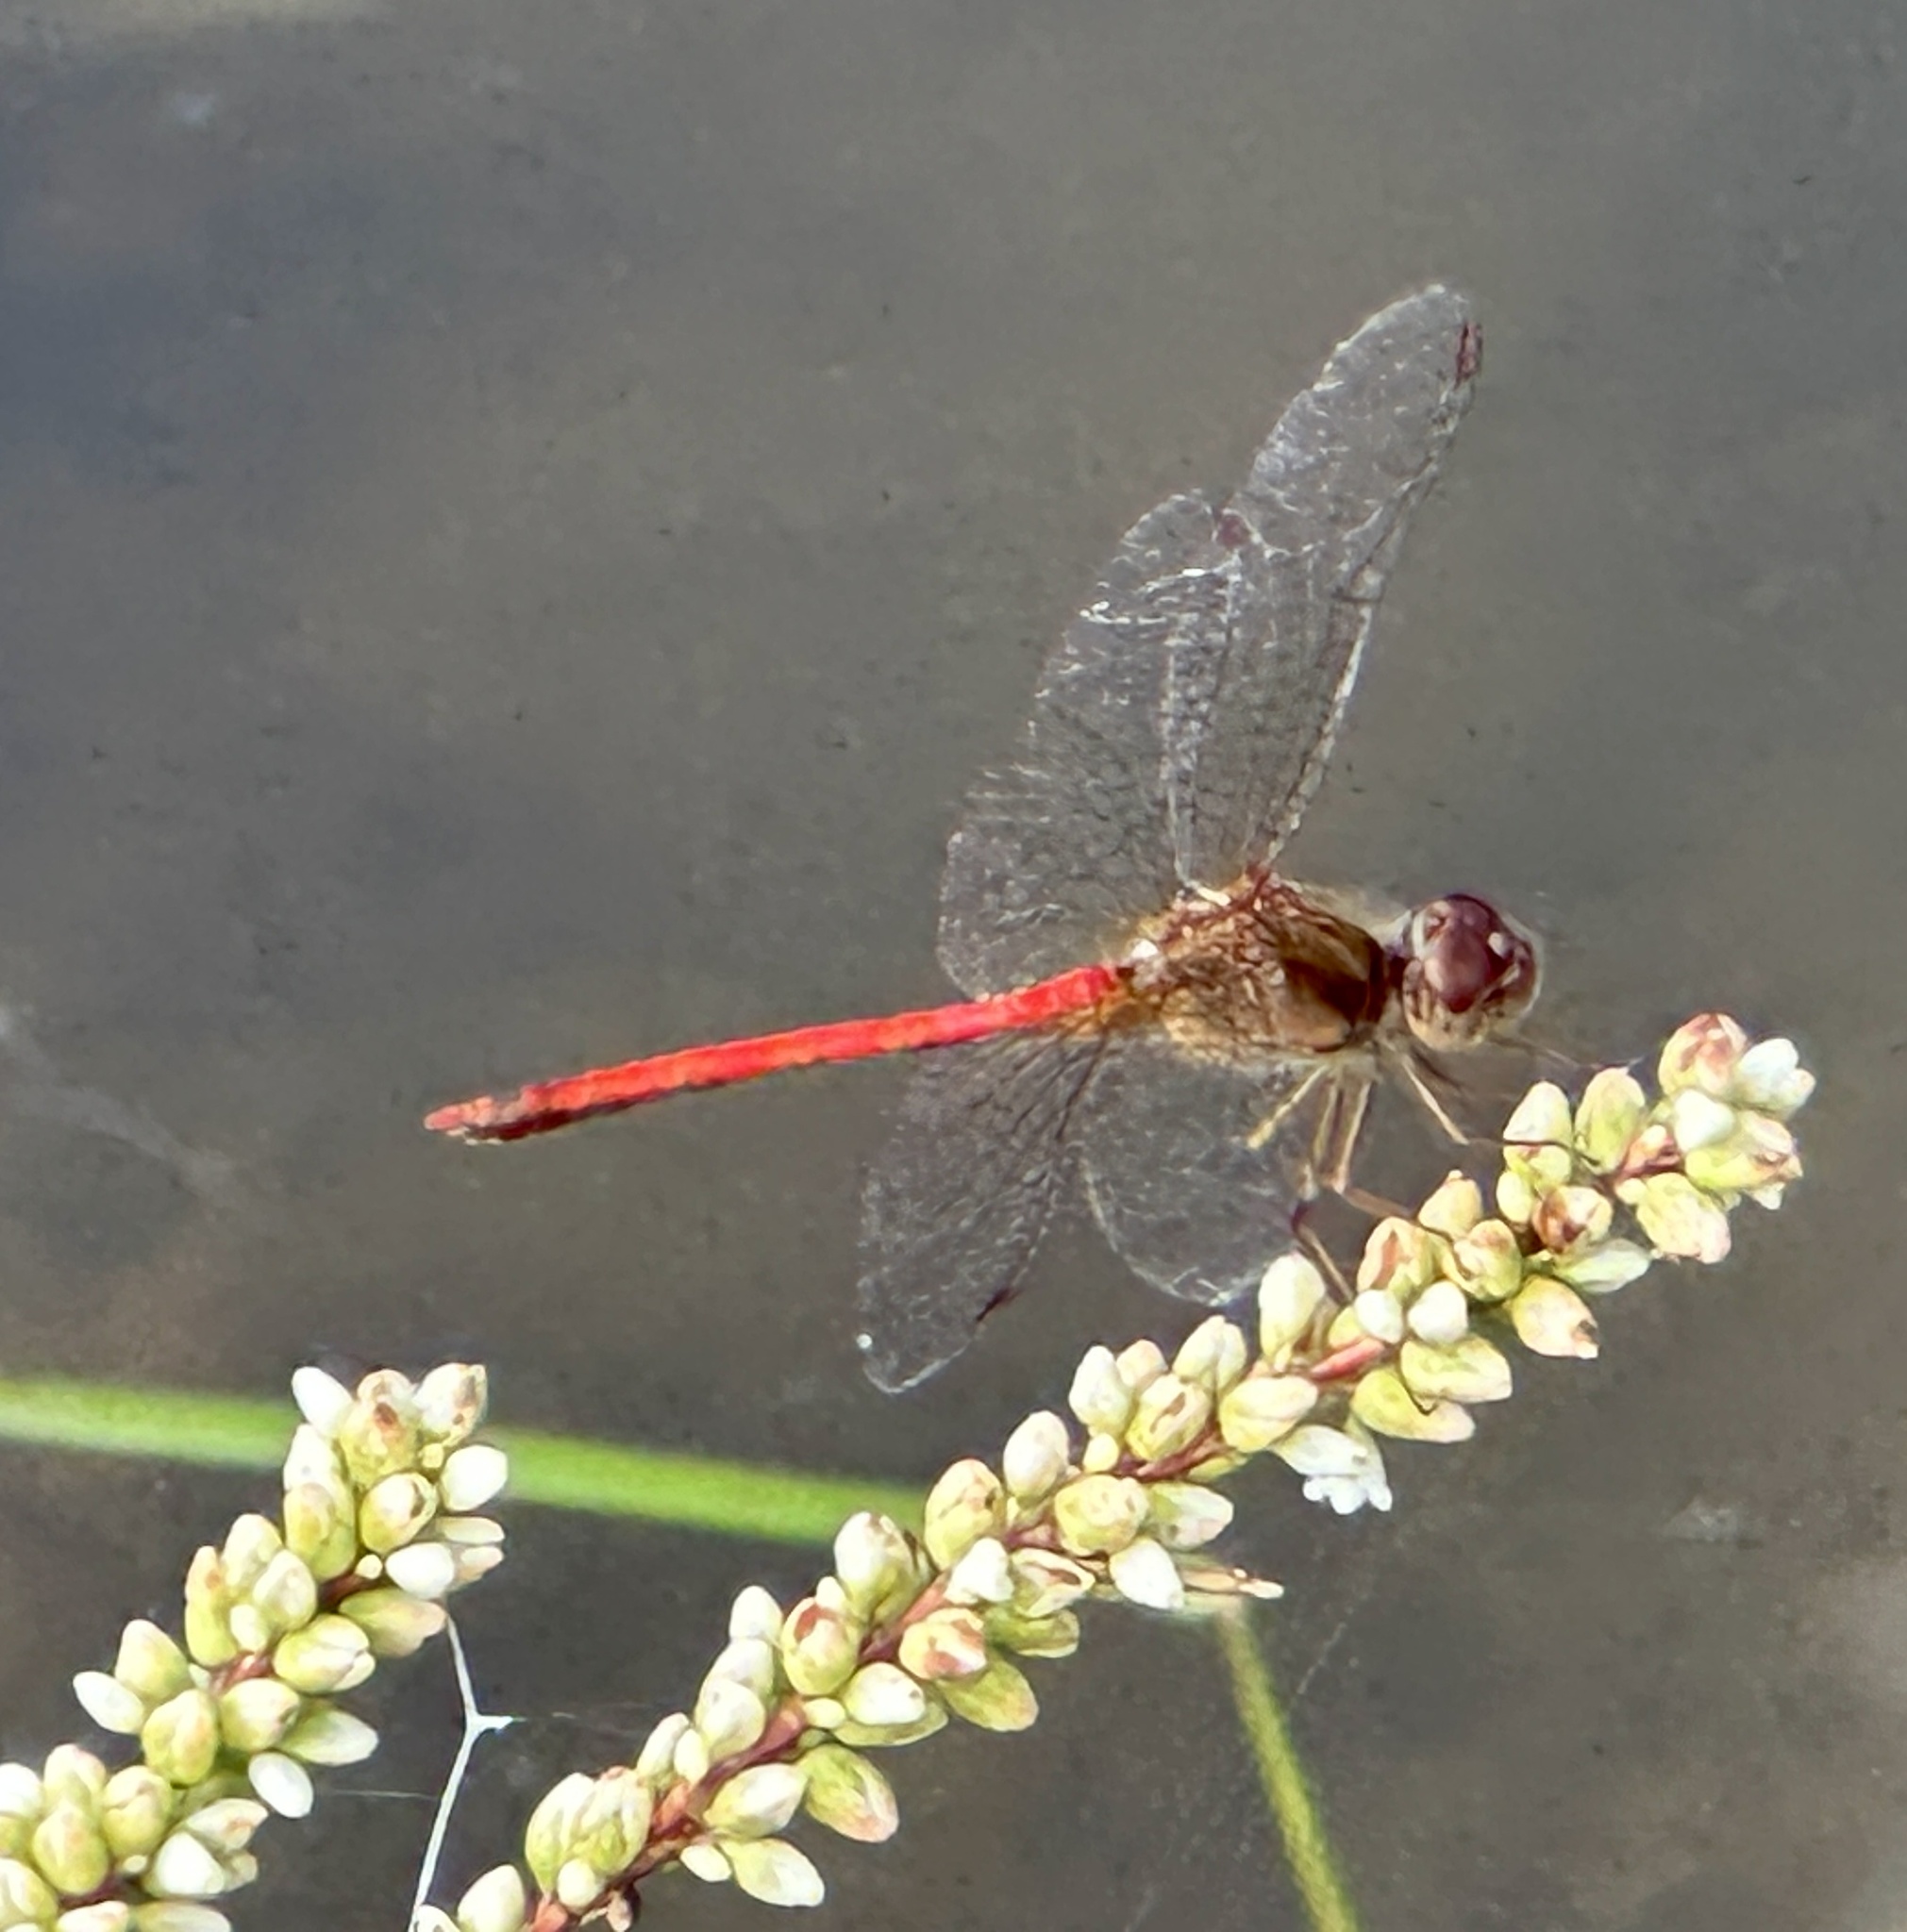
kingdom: Animalia
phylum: Arthropoda
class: Insecta
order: Odonata
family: Libellulidae
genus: Sympetrum
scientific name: Sympetrum vicinum
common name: Autumn meadowhawk
